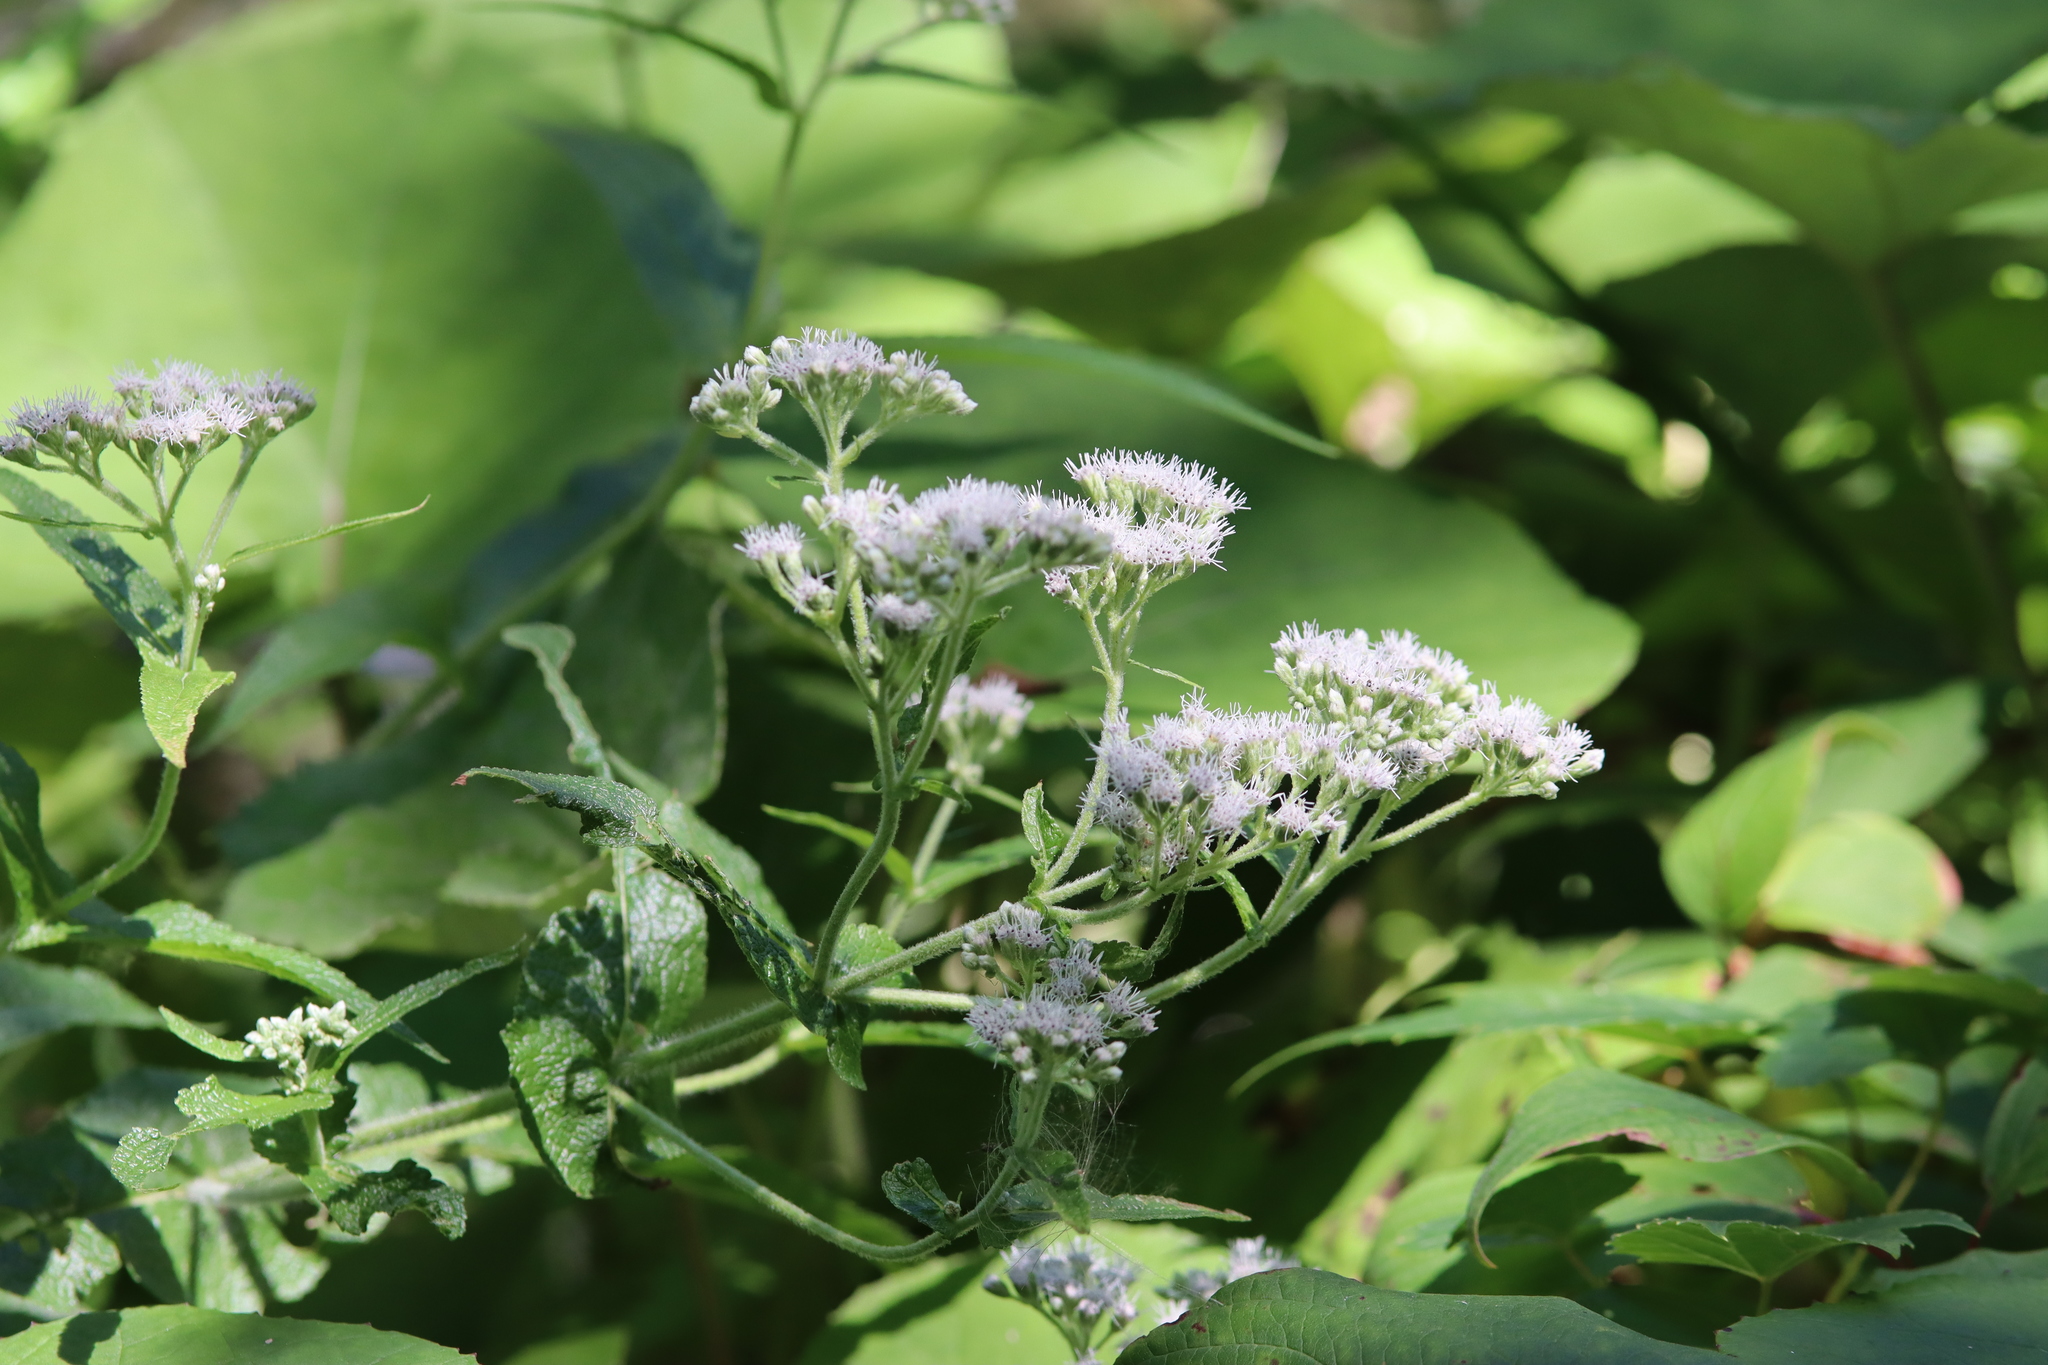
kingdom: Plantae
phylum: Tracheophyta
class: Magnoliopsida
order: Asterales
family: Asteraceae
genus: Eupatorium
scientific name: Eupatorium perfoliatum
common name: Boneset
